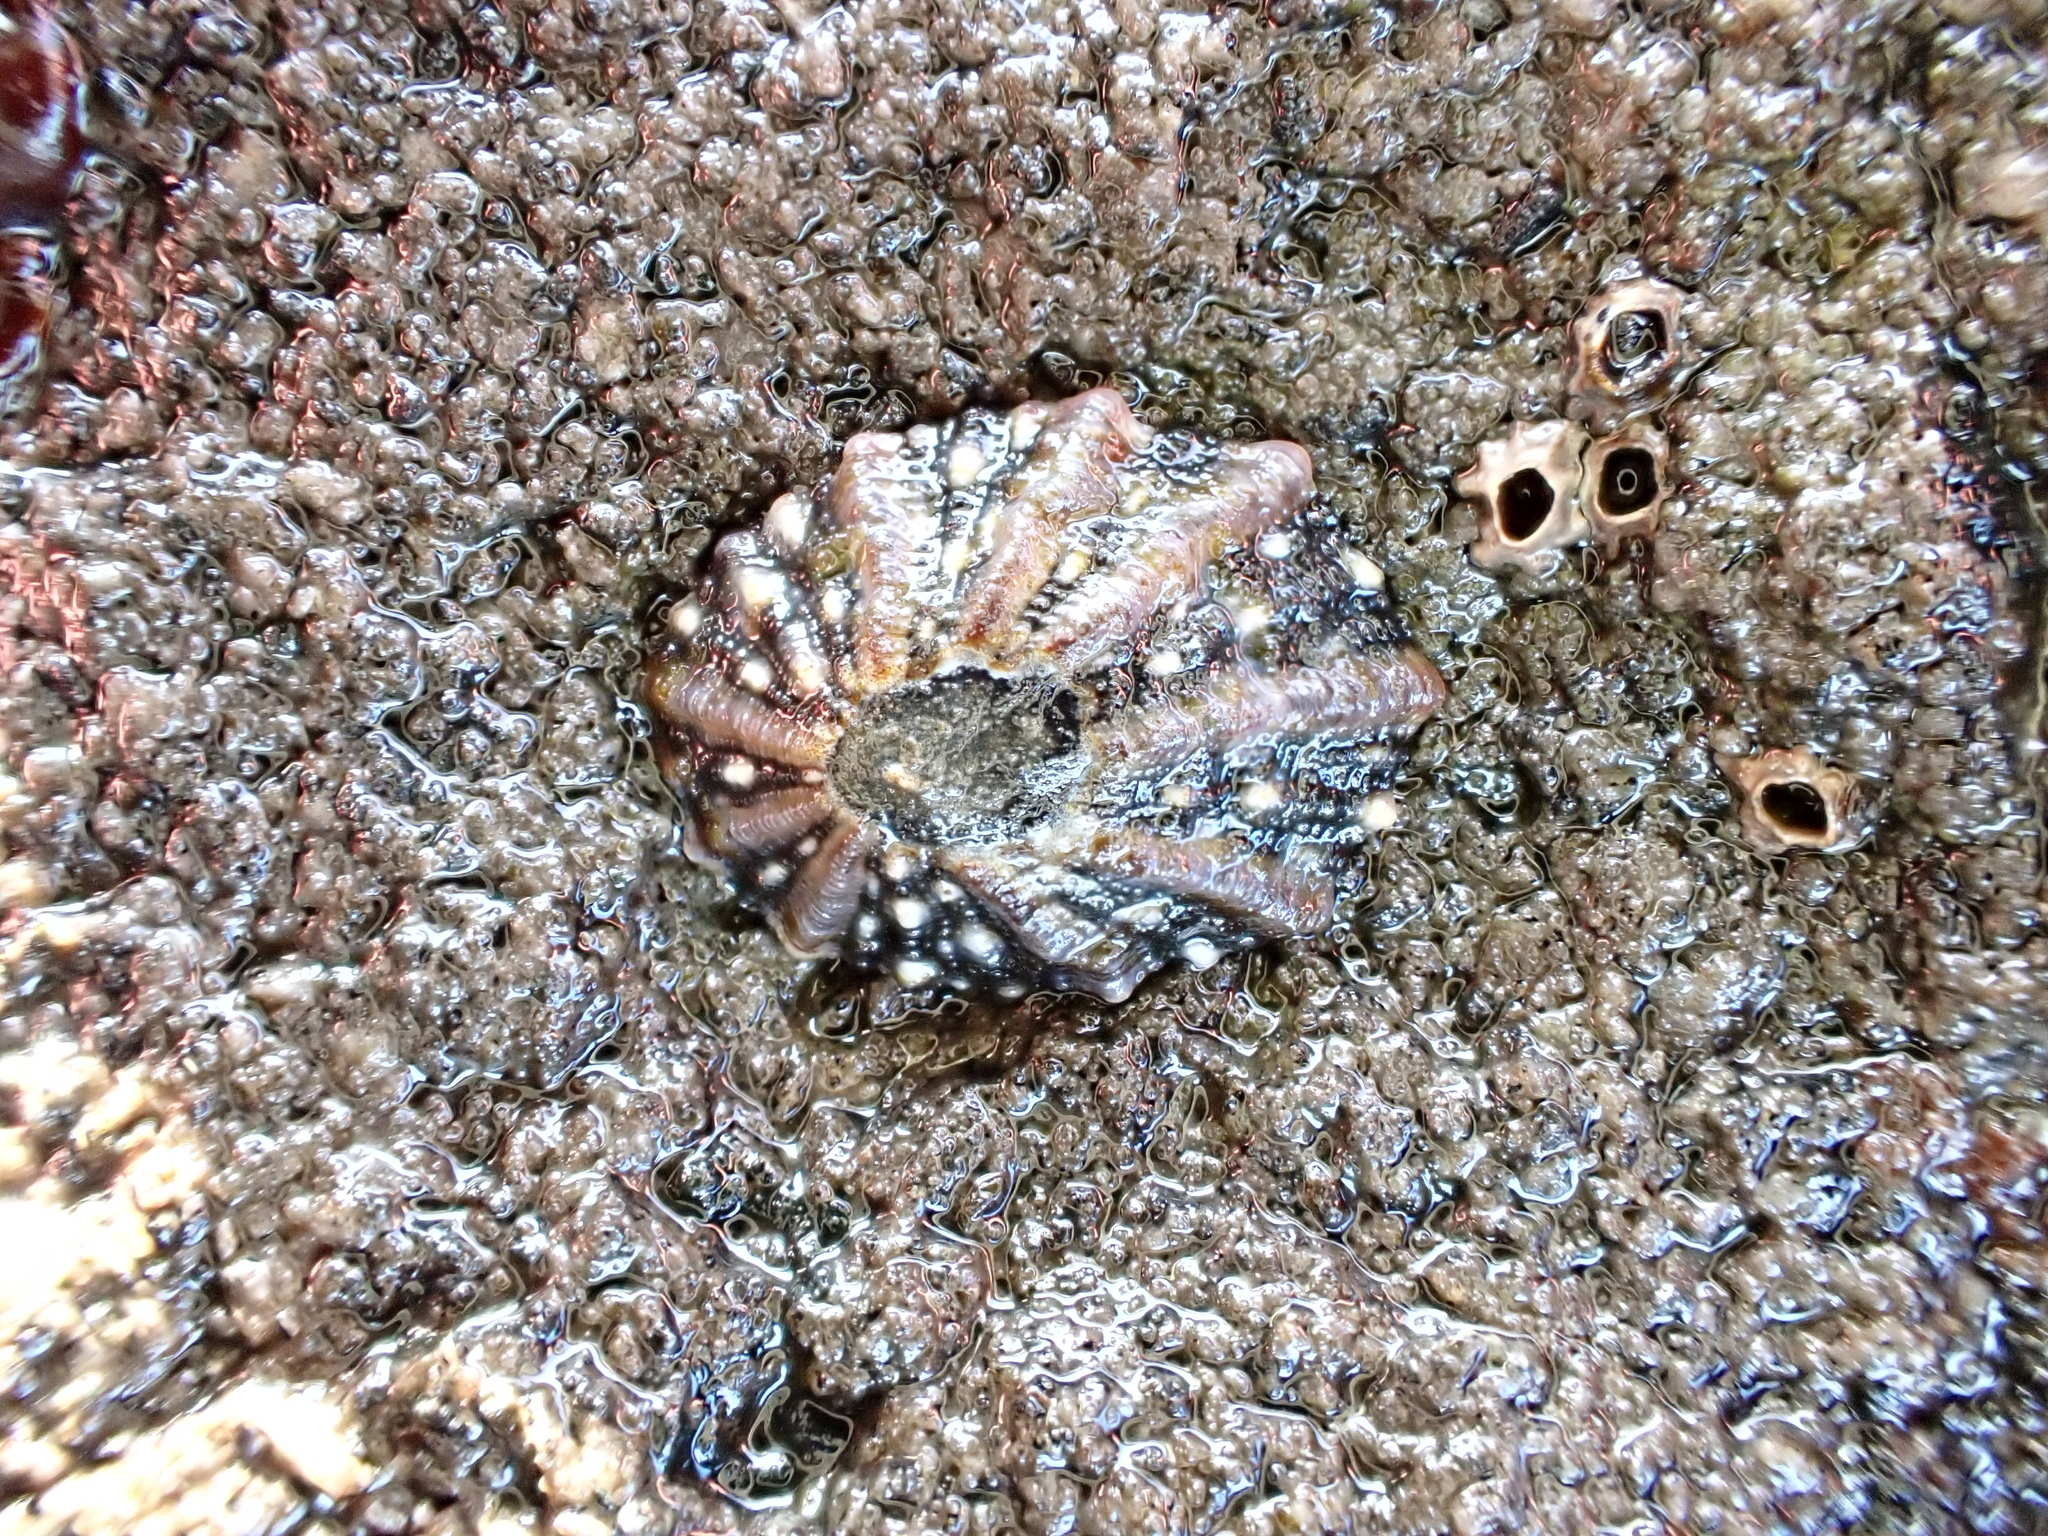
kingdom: Animalia
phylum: Mollusca
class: Gastropoda
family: Nacellidae
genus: Cellana
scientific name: Cellana ornata
